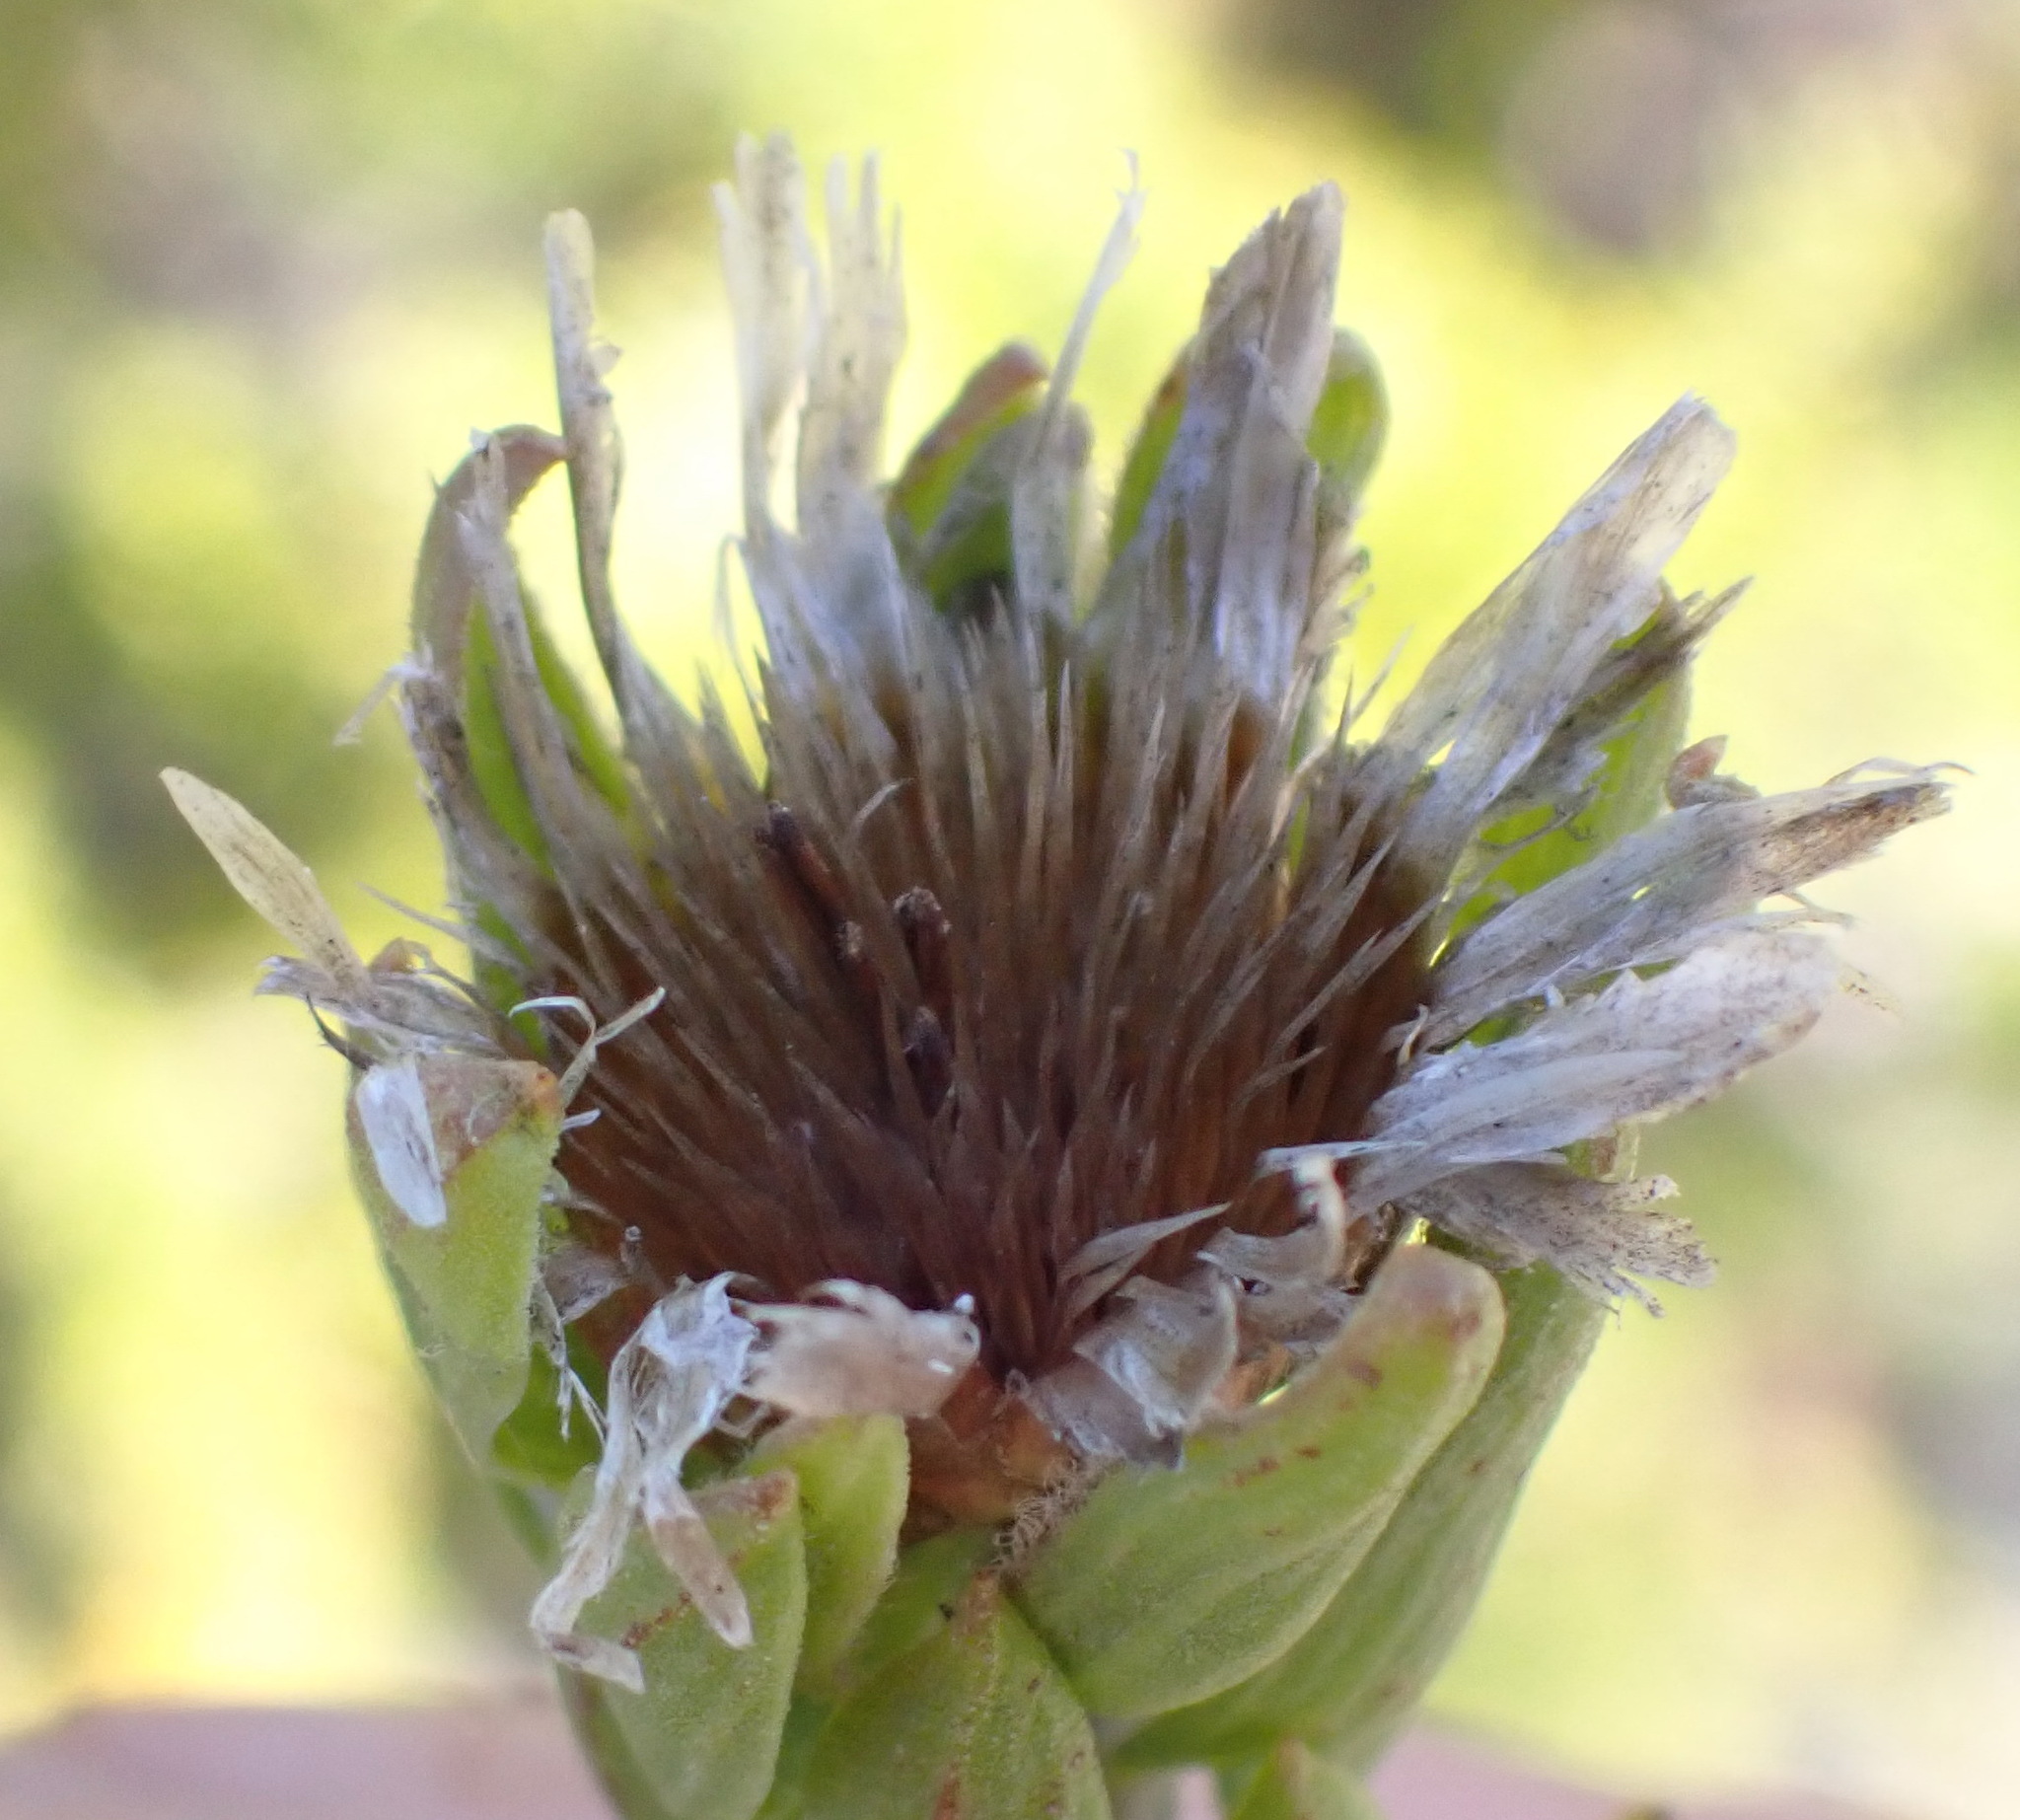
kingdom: Plantae
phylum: Tracheophyta
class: Magnoliopsida
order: Asterales
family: Asteraceae
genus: Oedera
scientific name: Oedera calycina
